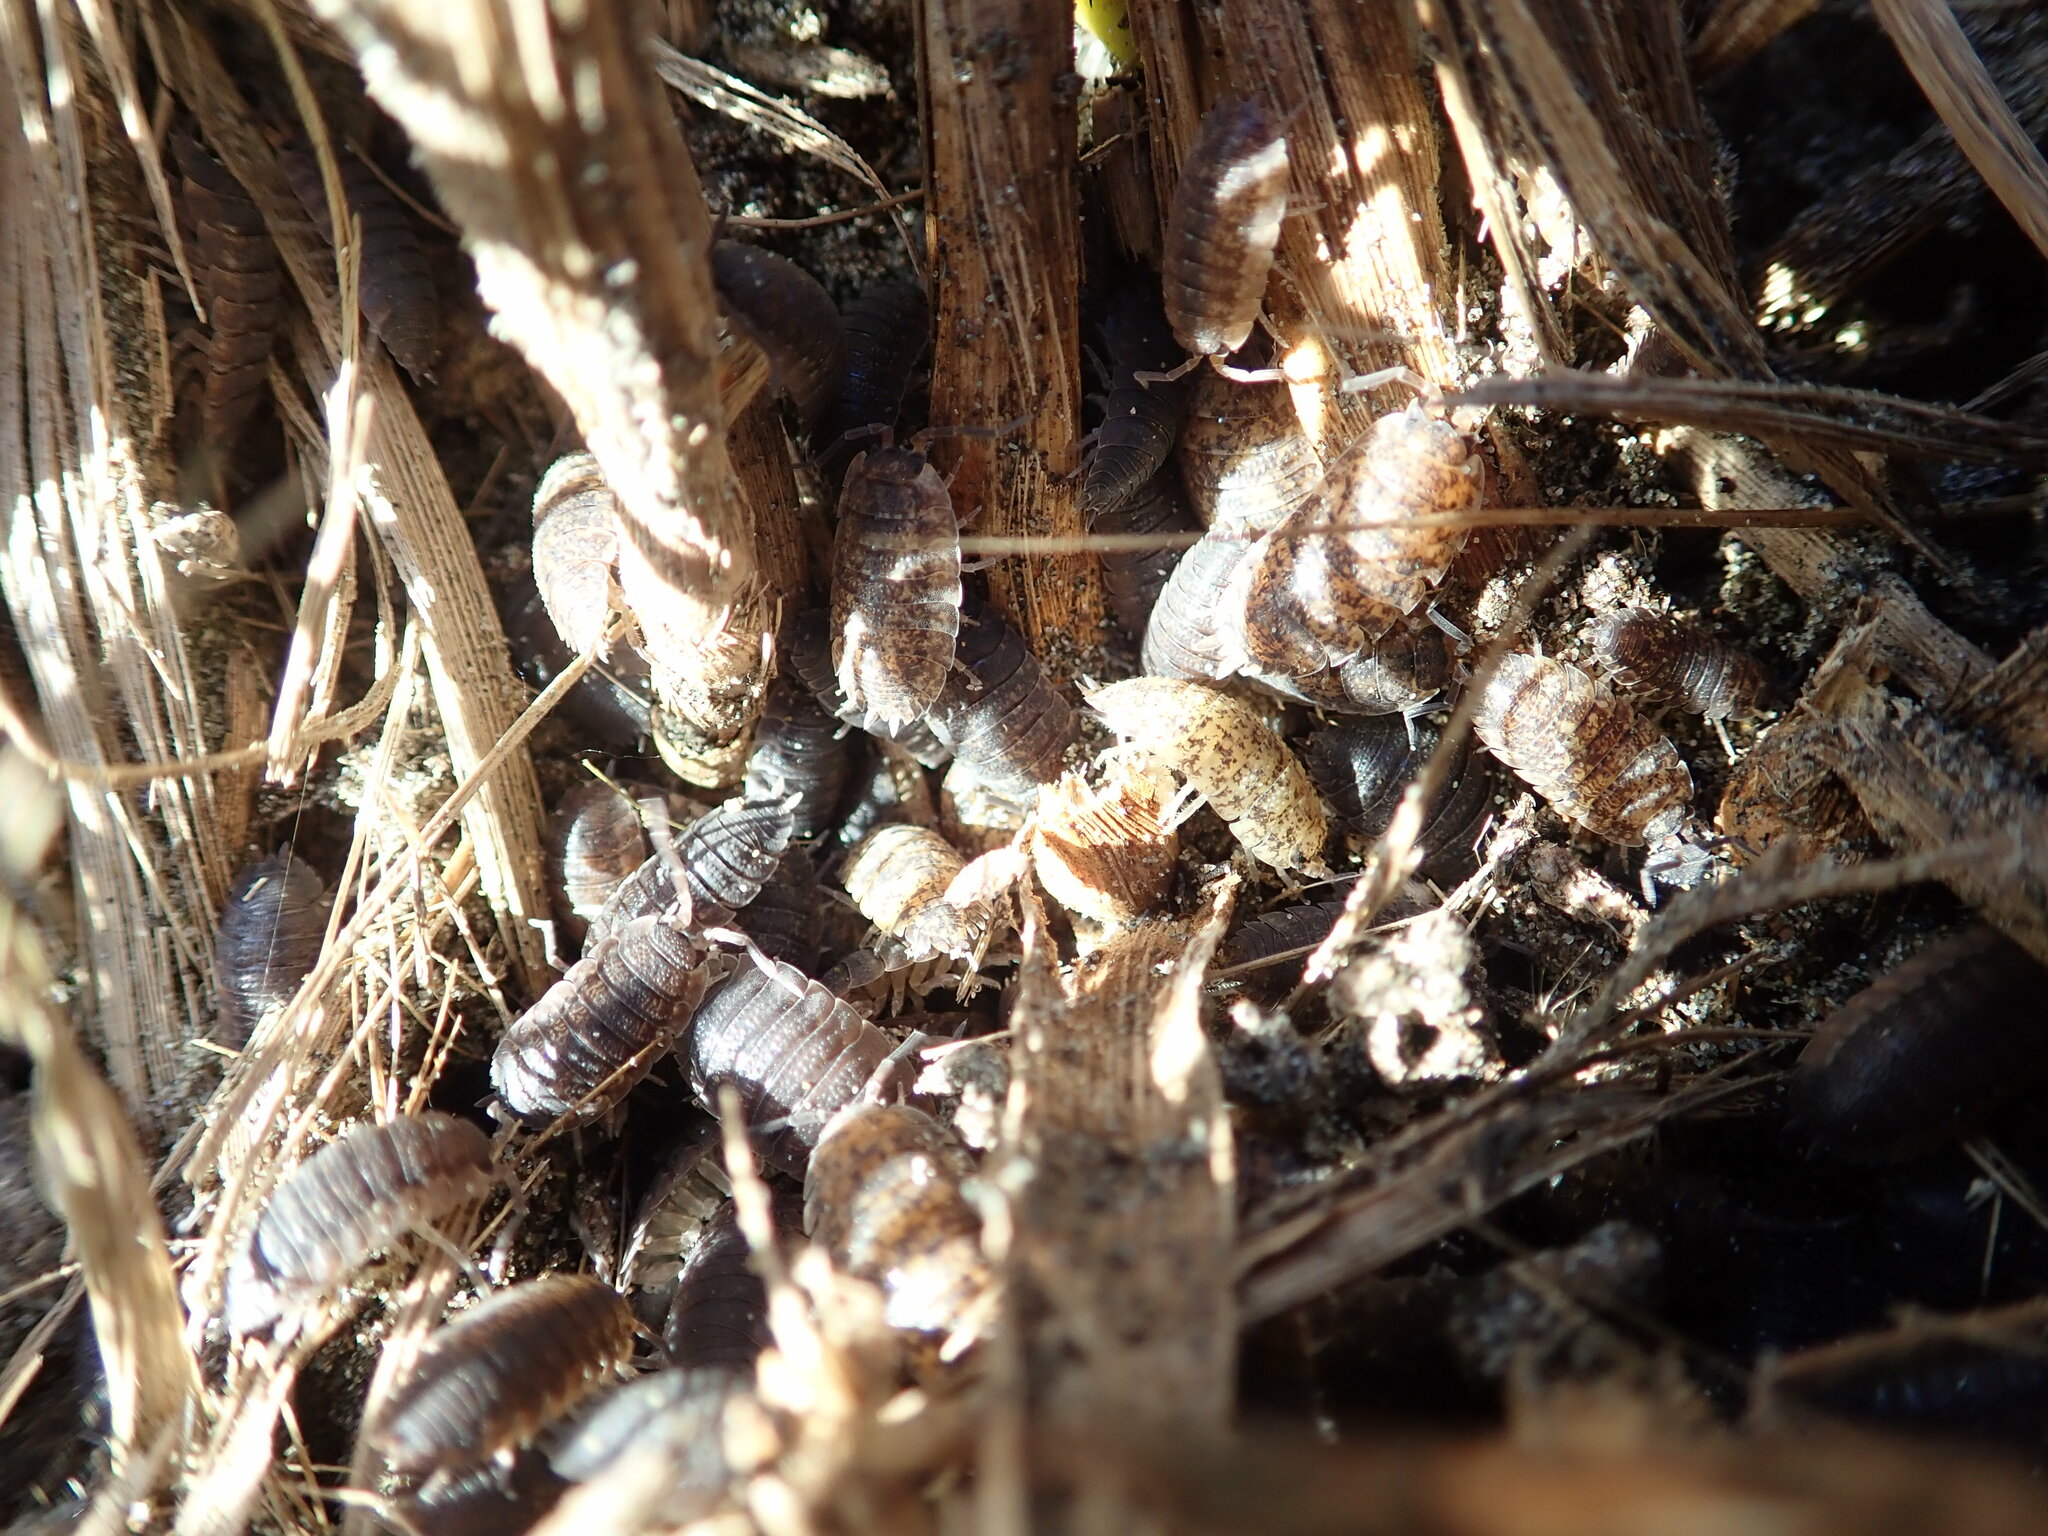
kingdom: Animalia
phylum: Arthropoda
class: Malacostraca
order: Isopoda
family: Porcellionidae
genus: Porcellio
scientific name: Porcellio scaber
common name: Common rough woodlouse
